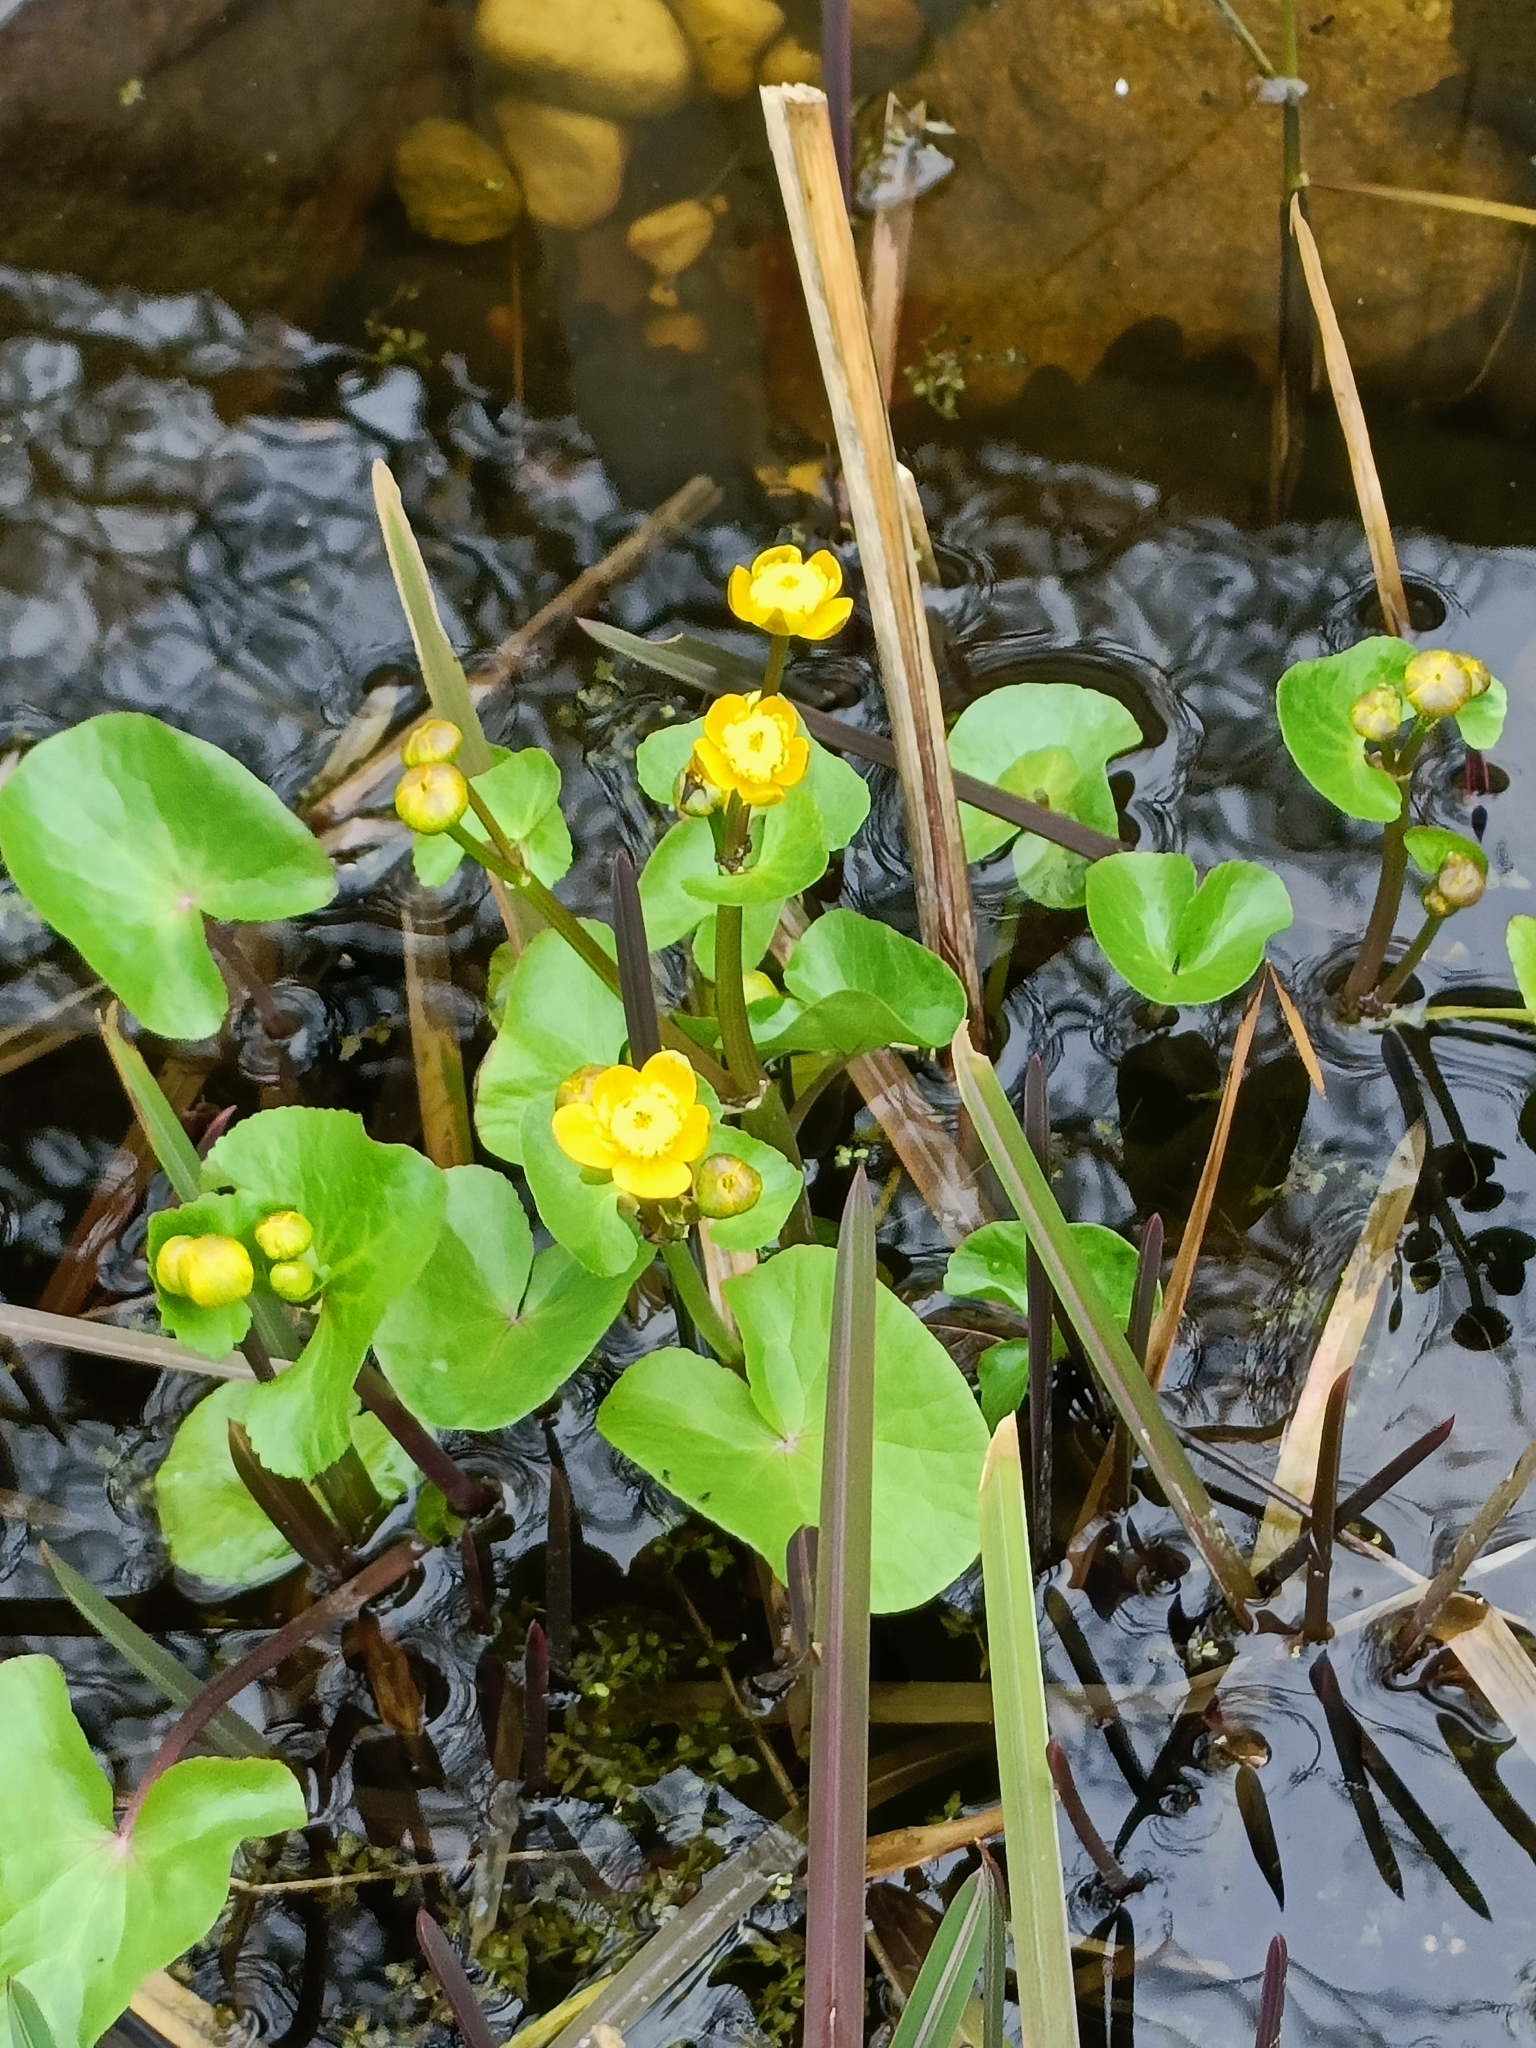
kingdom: Plantae
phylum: Tracheophyta
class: Magnoliopsida
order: Ranunculales
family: Ranunculaceae
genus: Caltha
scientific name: Caltha palustris
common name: Marsh marigold
